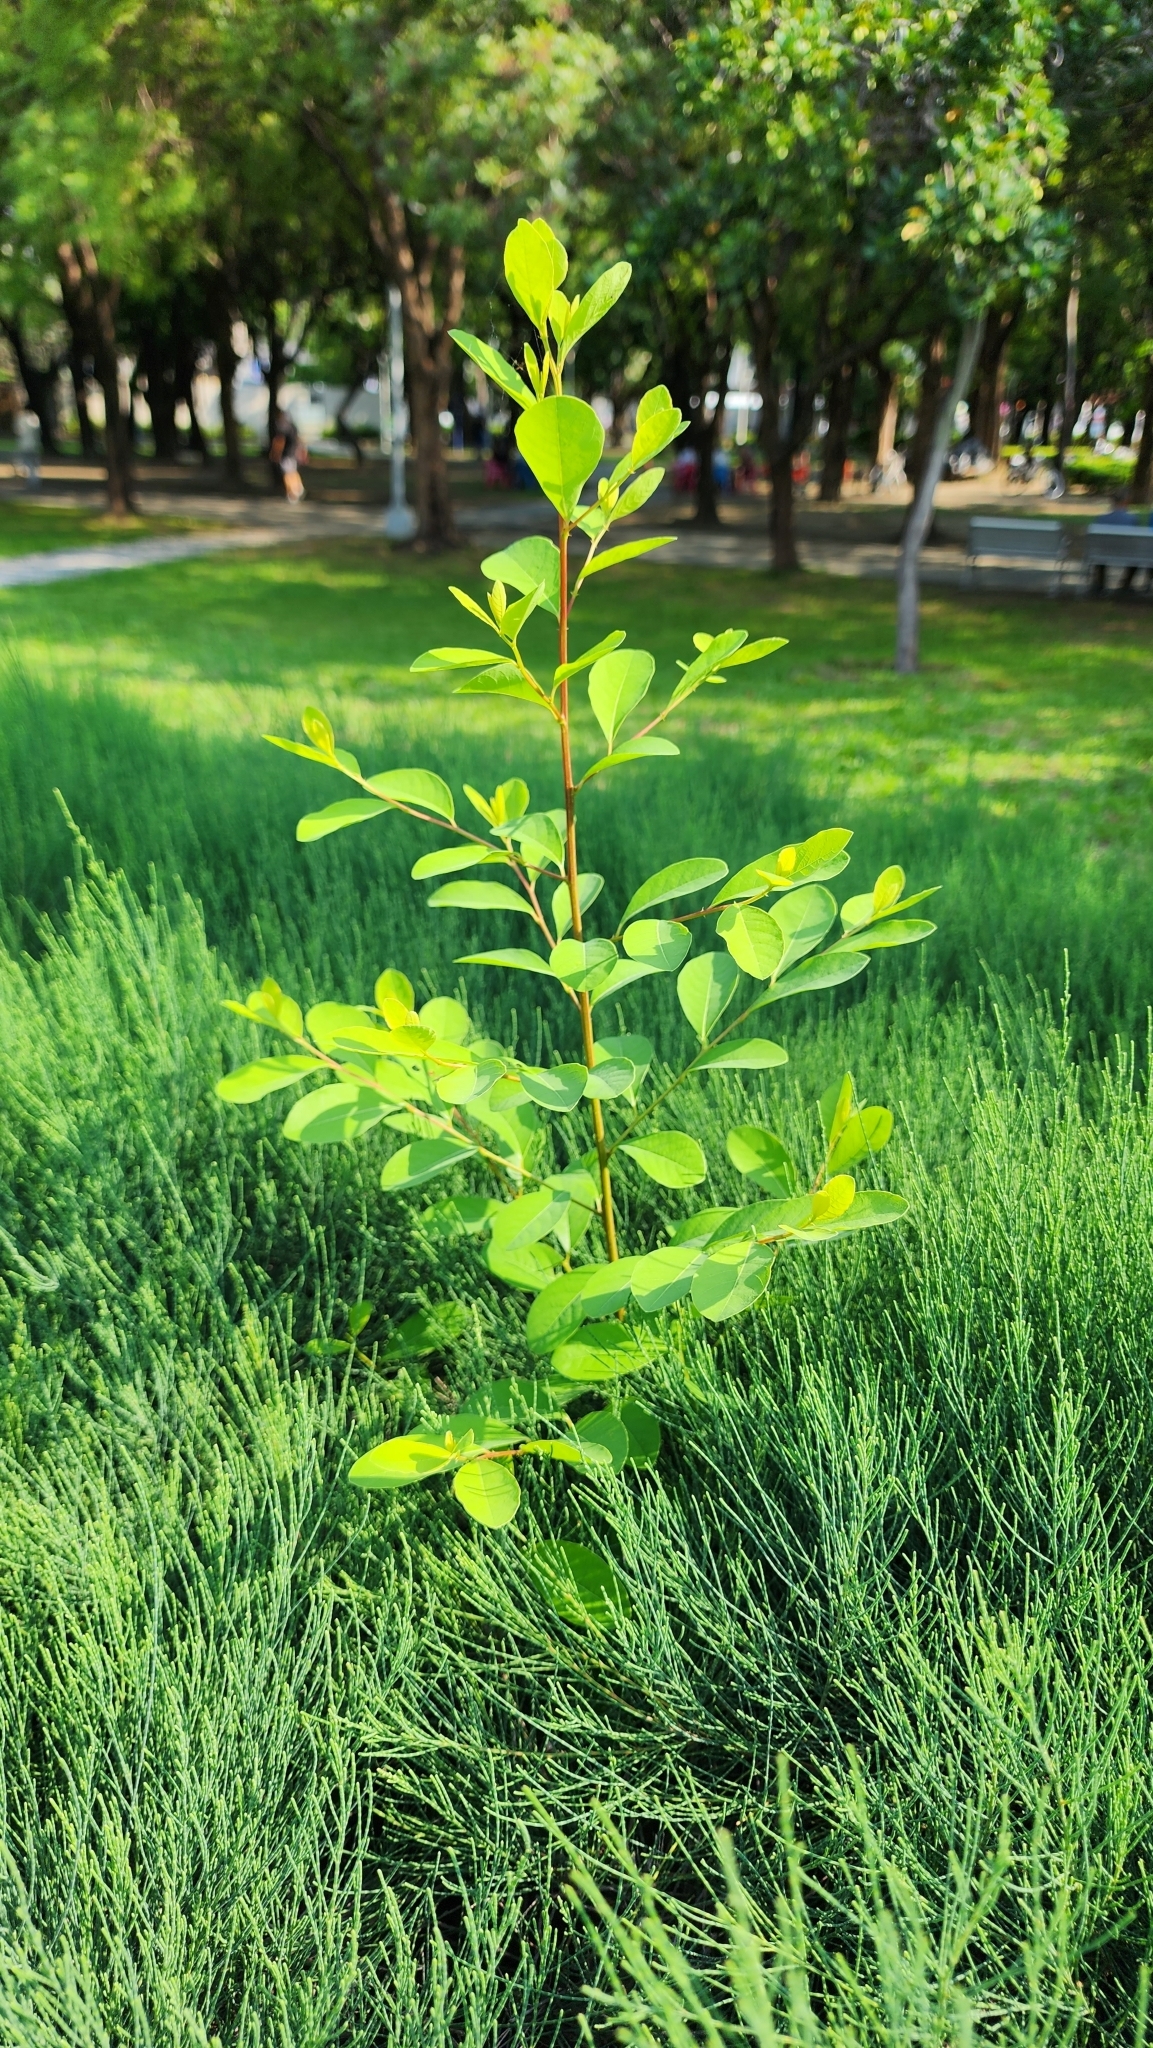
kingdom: Plantae
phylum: Tracheophyta
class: Magnoliopsida
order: Malpighiales
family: Phyllanthaceae
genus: Flueggea
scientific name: Flueggea virosa
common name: Common bushweed
